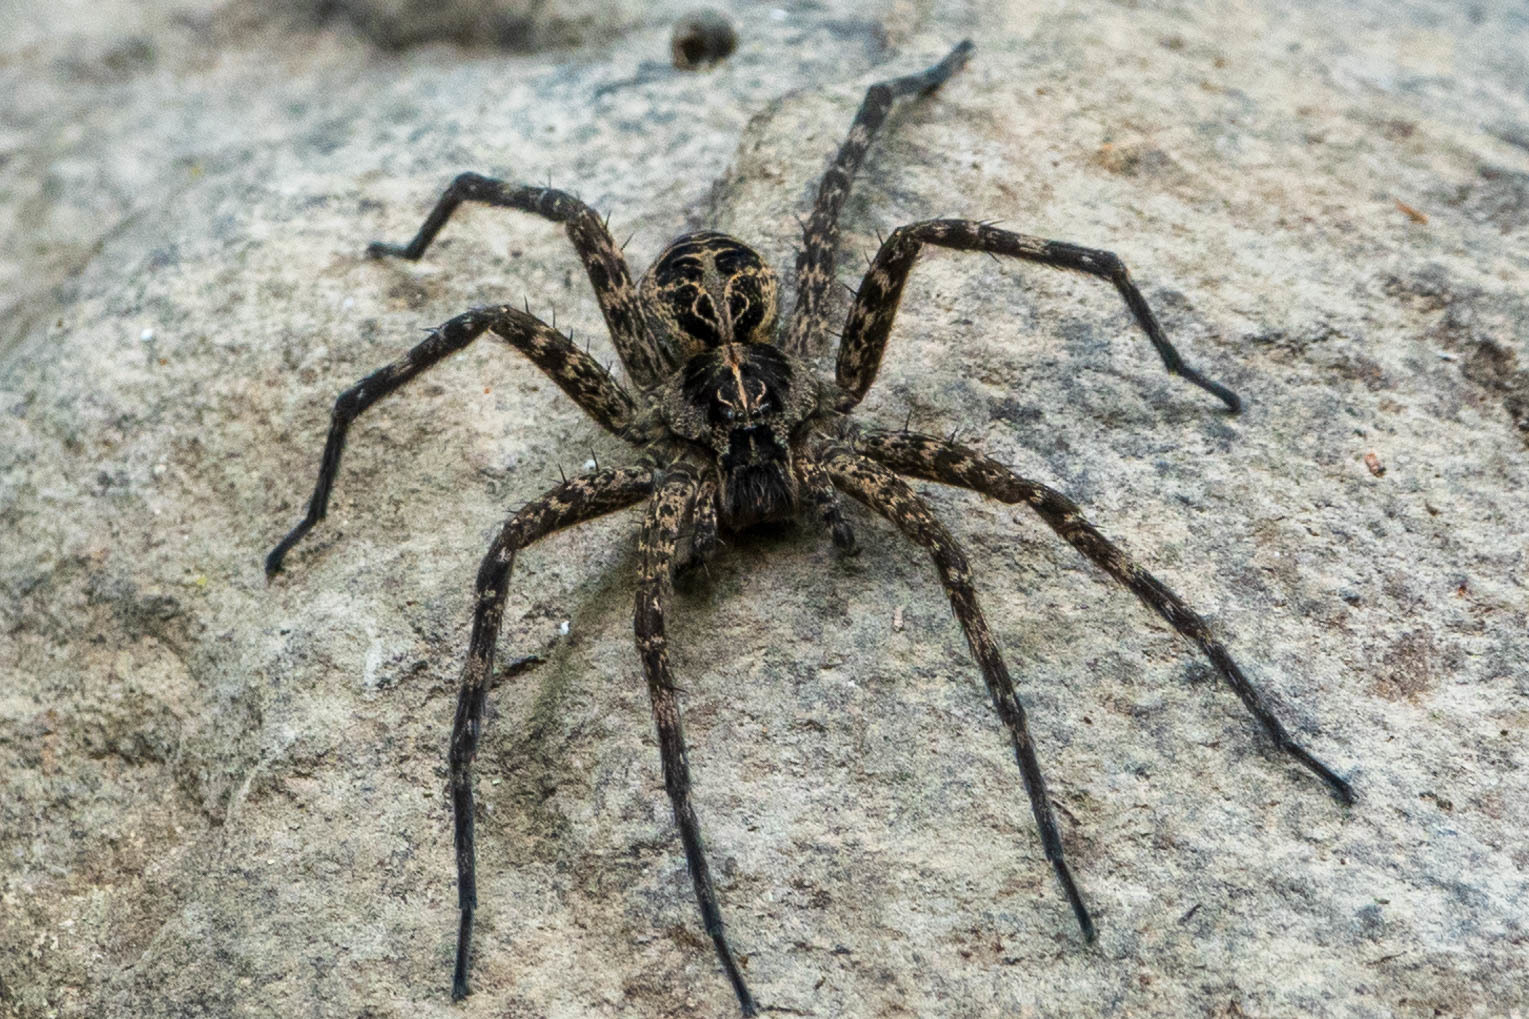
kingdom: Animalia
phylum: Arthropoda
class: Arachnida
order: Araneae
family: Pisauridae
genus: Dolomedes
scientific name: Dolomedes scriptus
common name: Striped fishing spider
